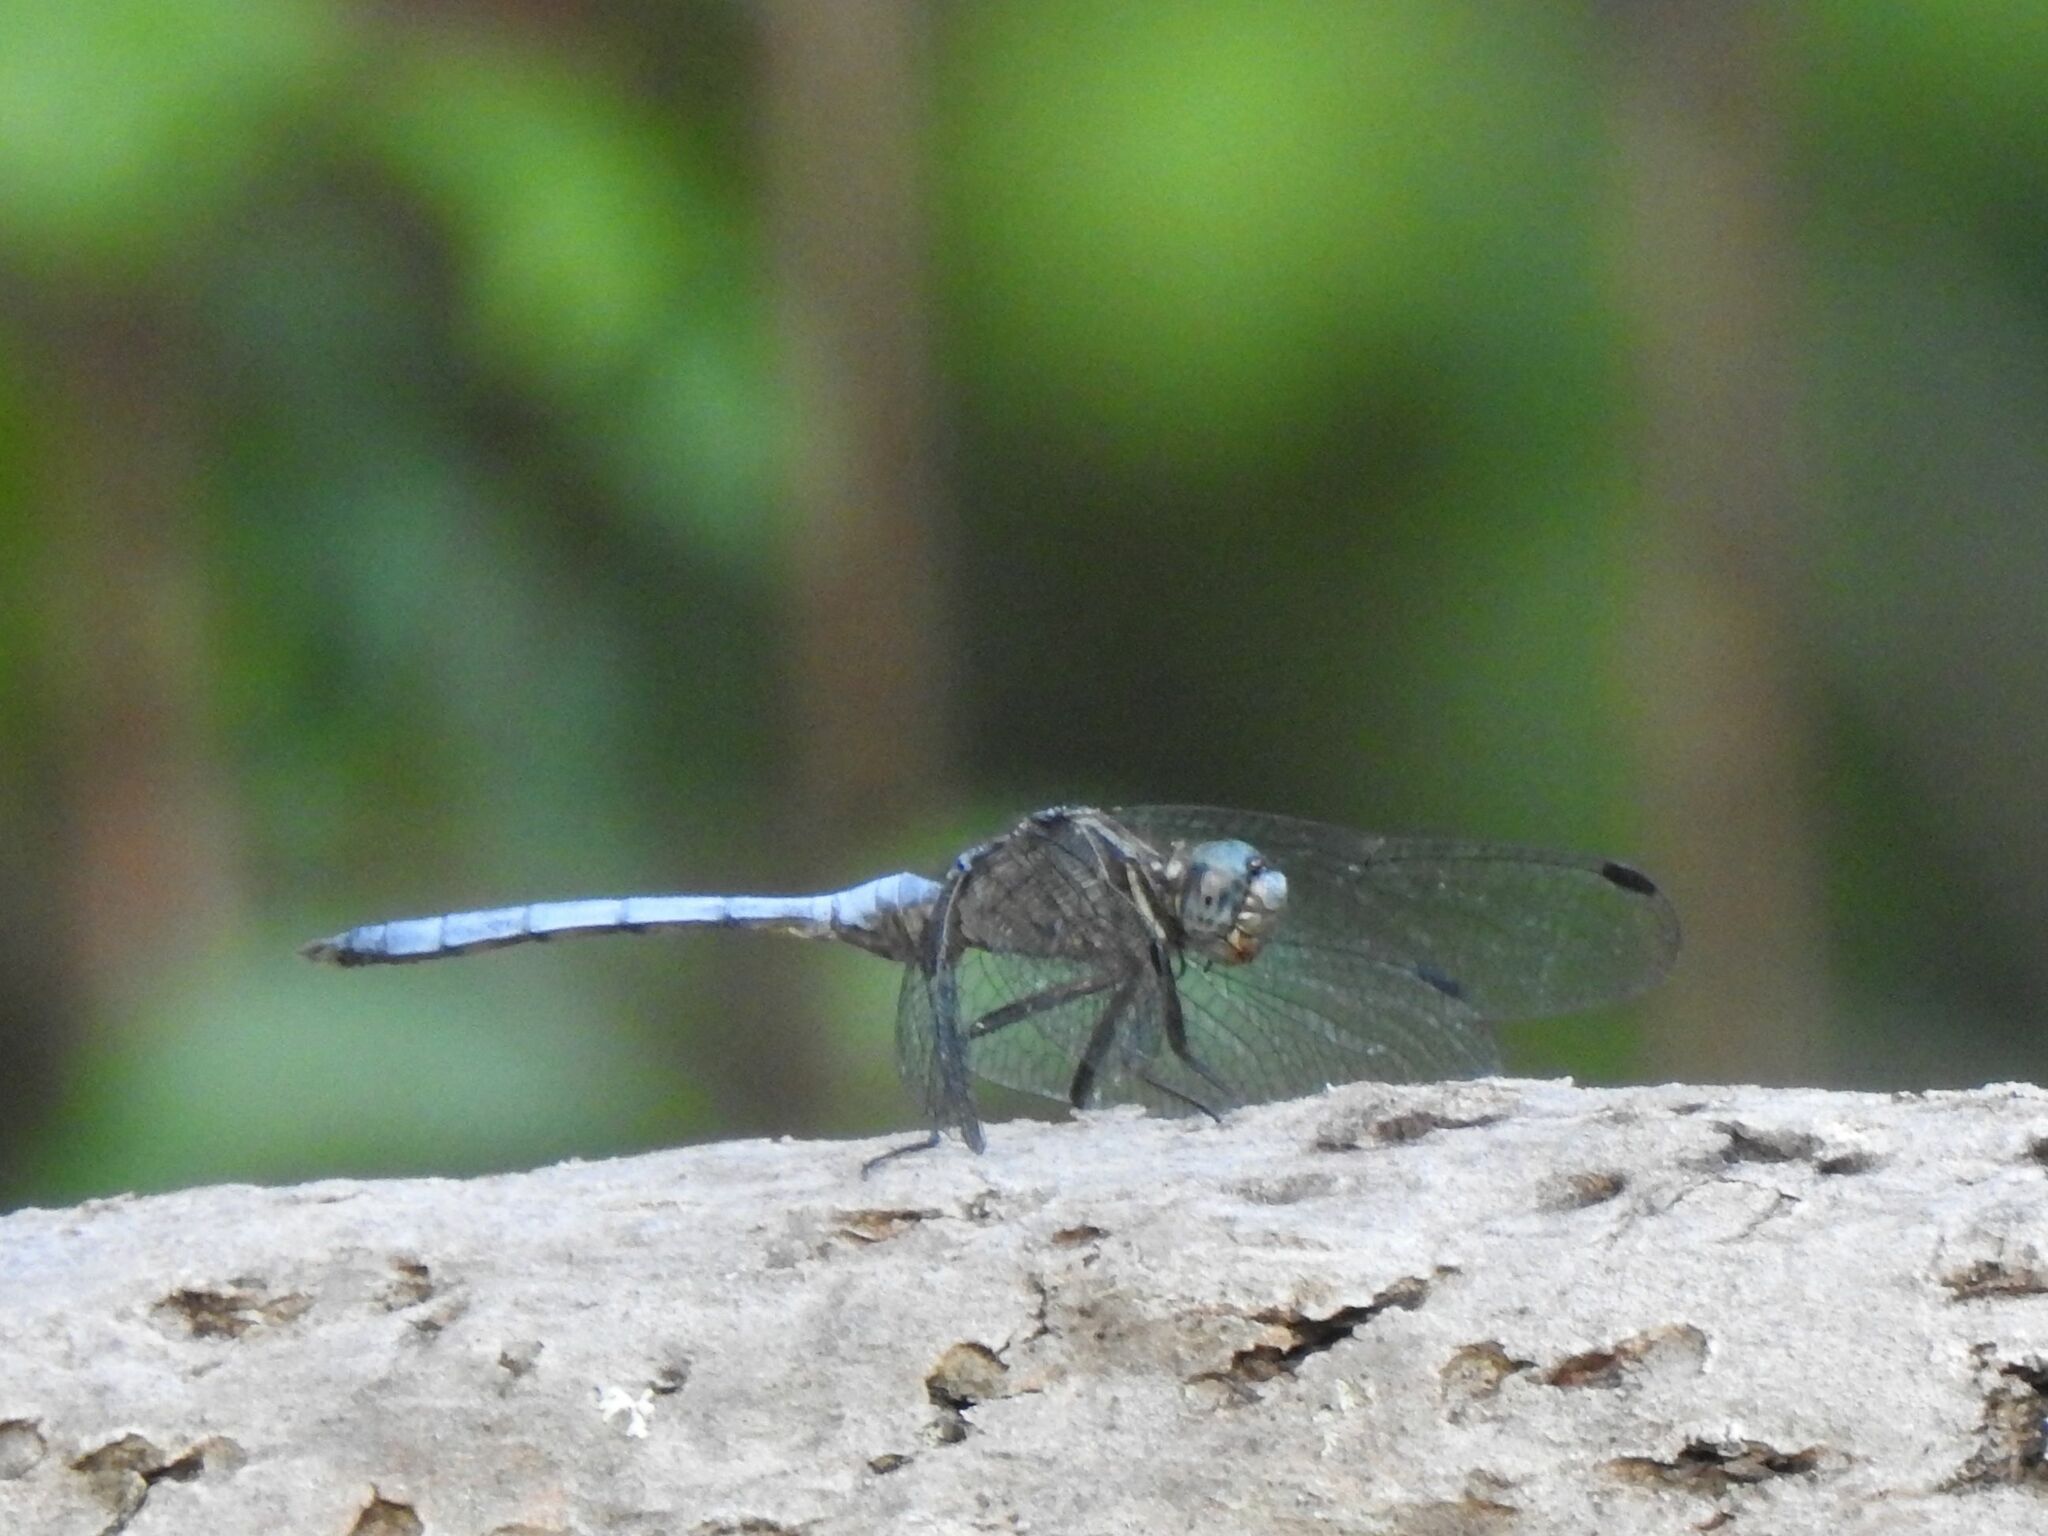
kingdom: Animalia
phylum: Arthropoda
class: Insecta
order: Odonata
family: Libellulidae
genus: Orthetrum
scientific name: Orthetrum julia
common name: Julia skimmer
